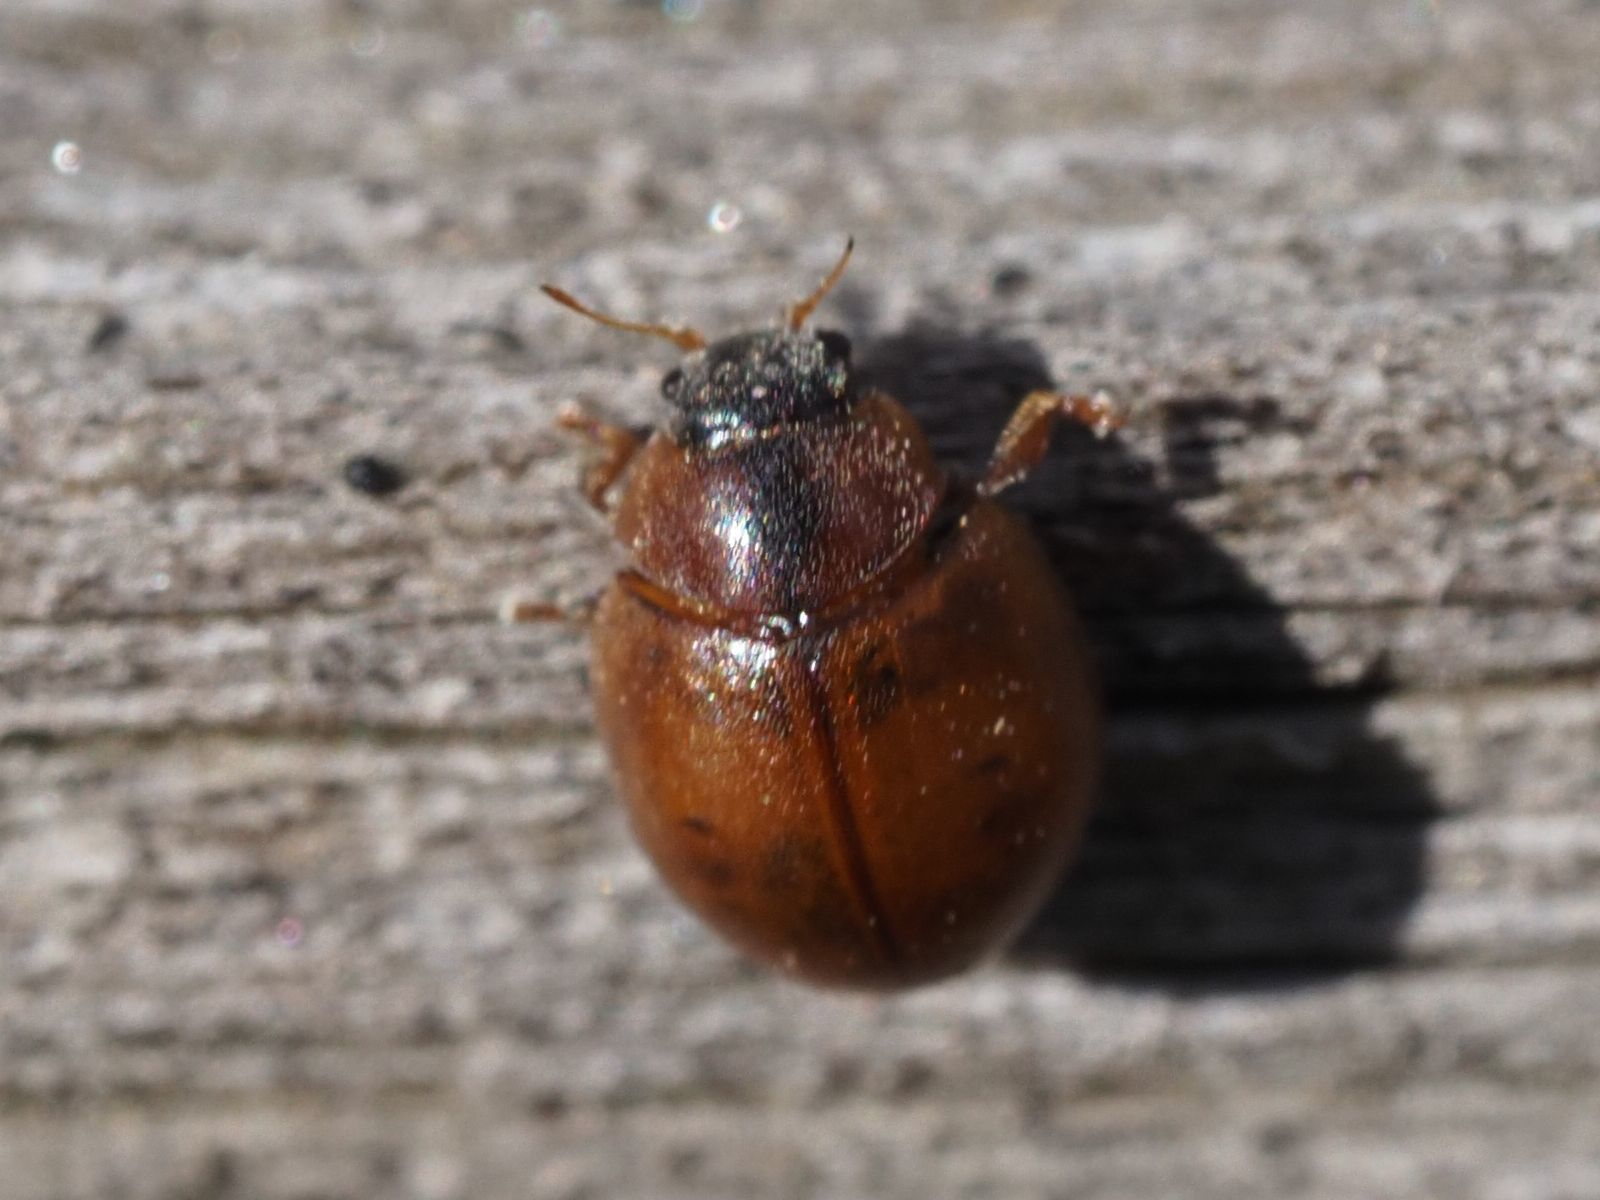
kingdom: Animalia
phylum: Arthropoda
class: Insecta
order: Coleoptera
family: Coccinellidae
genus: Cynegetis
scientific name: Cynegetis impunctata
